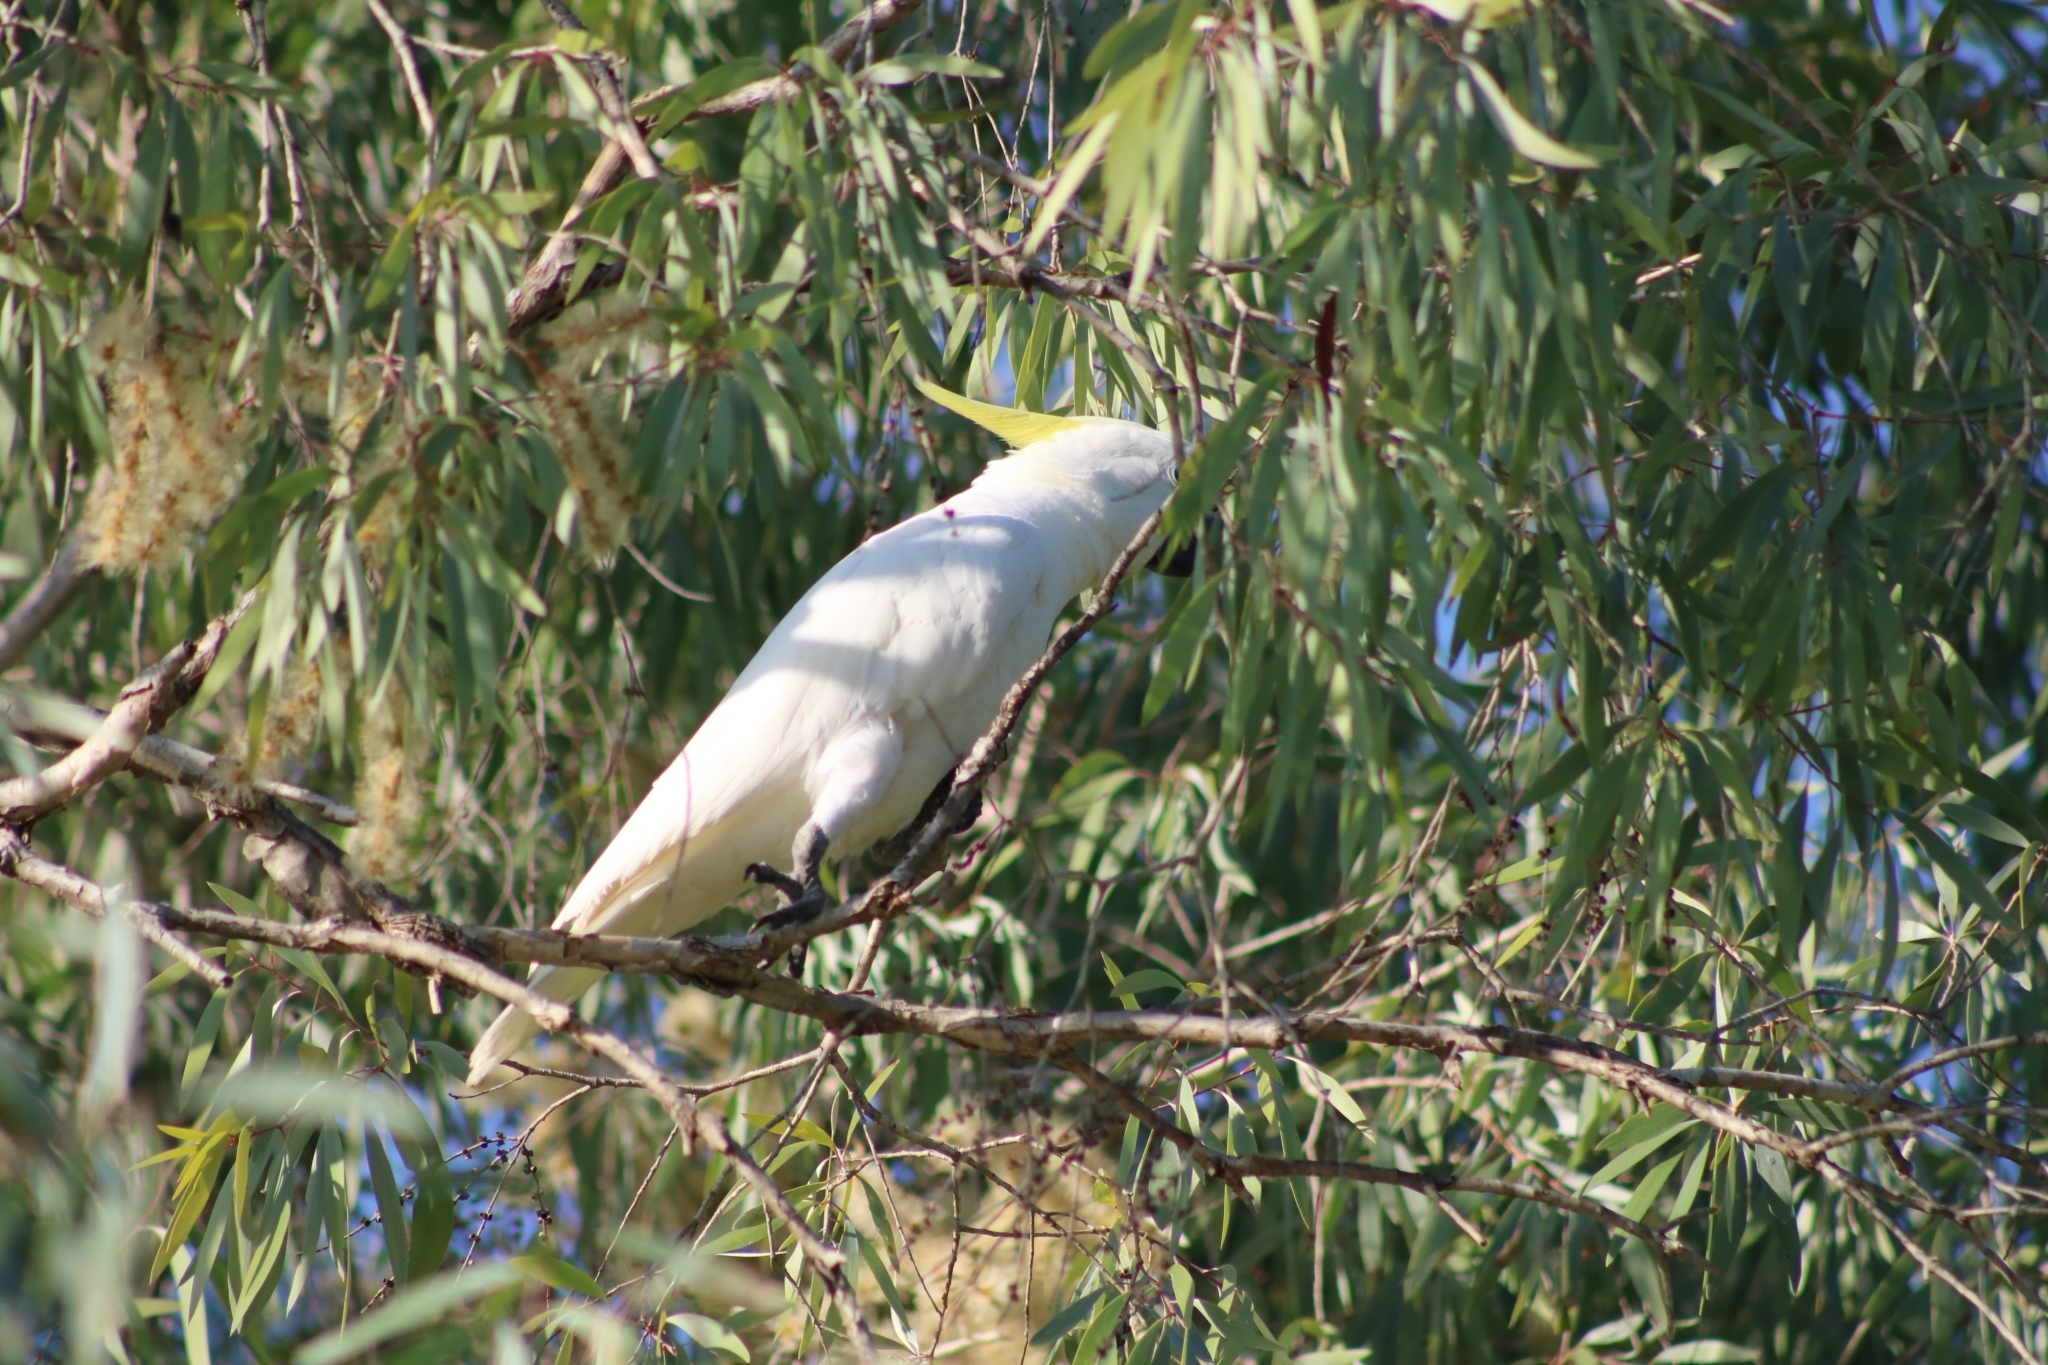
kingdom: Animalia
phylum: Chordata
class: Aves
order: Psittaciformes
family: Psittacidae
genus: Cacatua
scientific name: Cacatua galerita
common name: Sulphur-crested cockatoo
